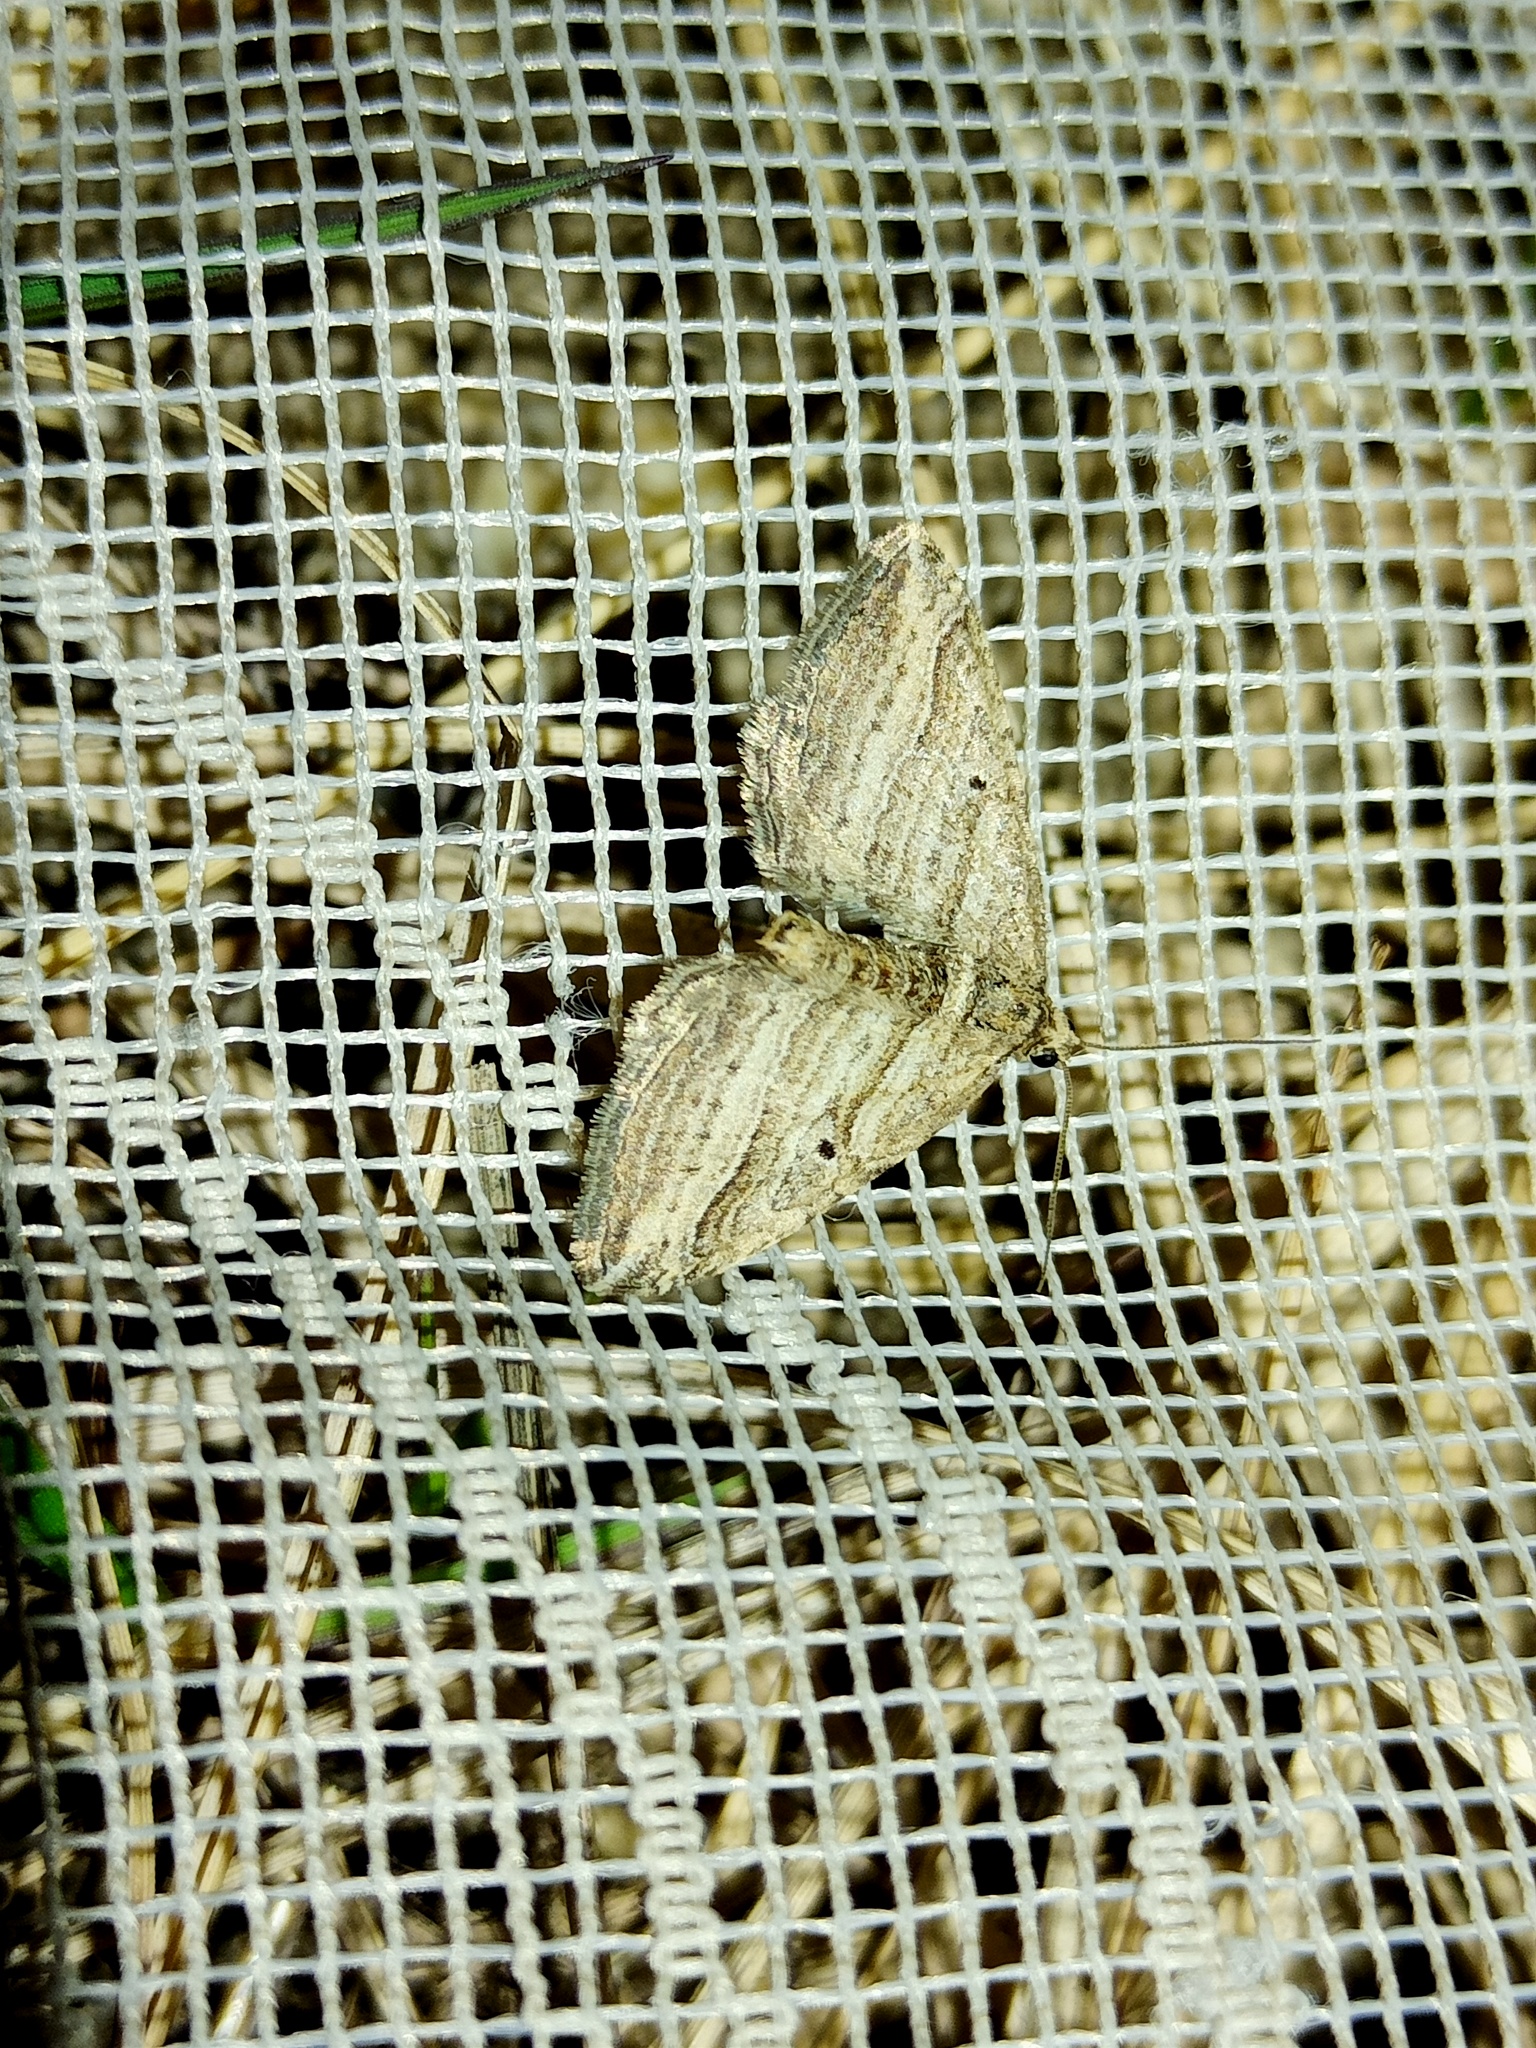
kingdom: Animalia
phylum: Arthropoda
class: Insecta
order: Lepidoptera
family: Geometridae
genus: Costaconvexa
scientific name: Costaconvexa polygrammata
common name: Many-lined
